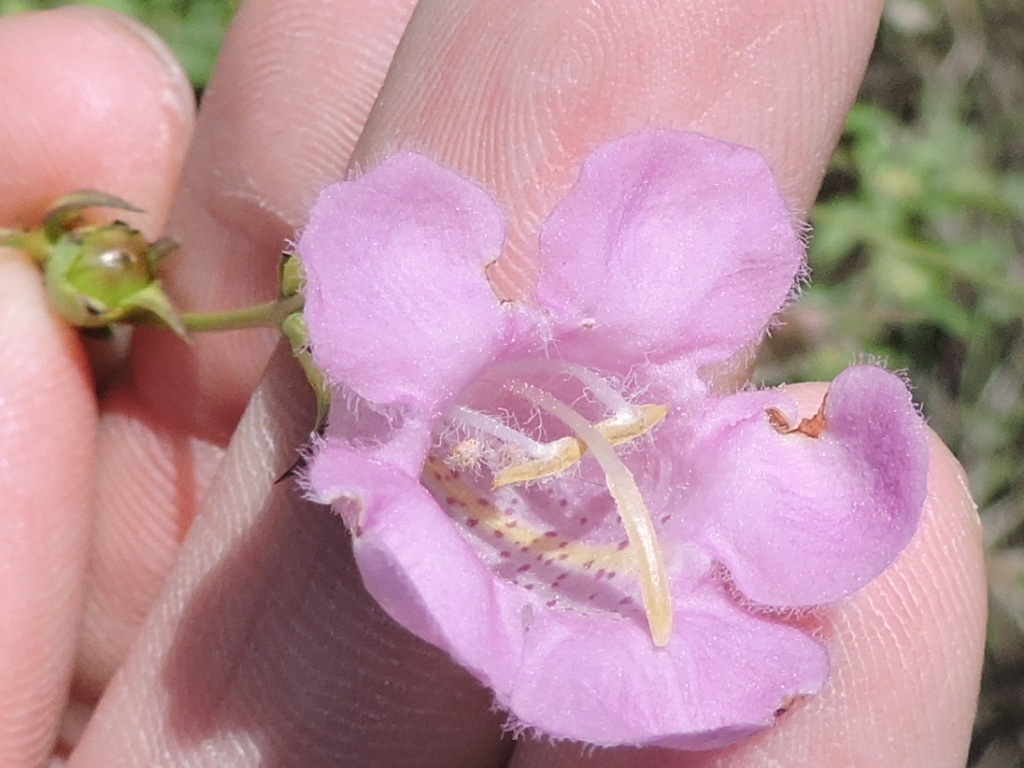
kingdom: Plantae
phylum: Tracheophyta
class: Magnoliopsida
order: Lamiales
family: Orobanchaceae
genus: Agalinis
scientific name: Agalinis heterophylla
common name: Prairie agalinis
